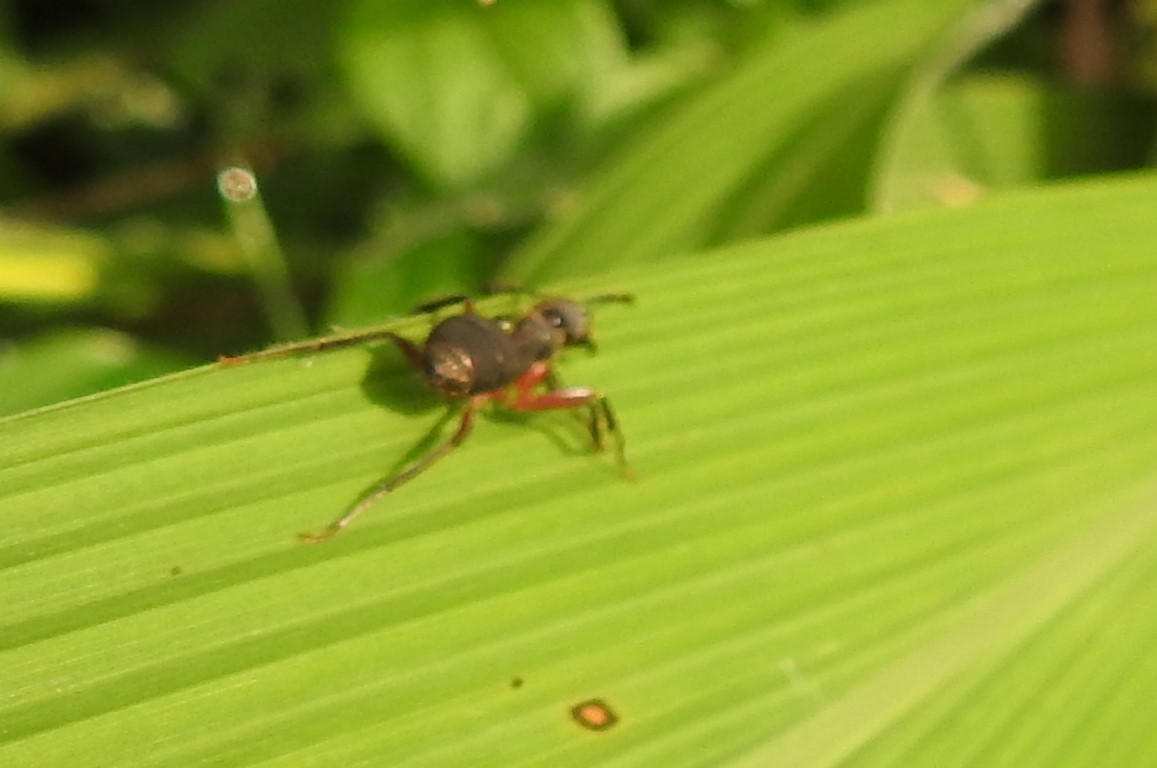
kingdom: Animalia
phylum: Arthropoda
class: Insecta
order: Hymenoptera
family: Formicidae
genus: Camponotus
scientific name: Camponotus rufipes
